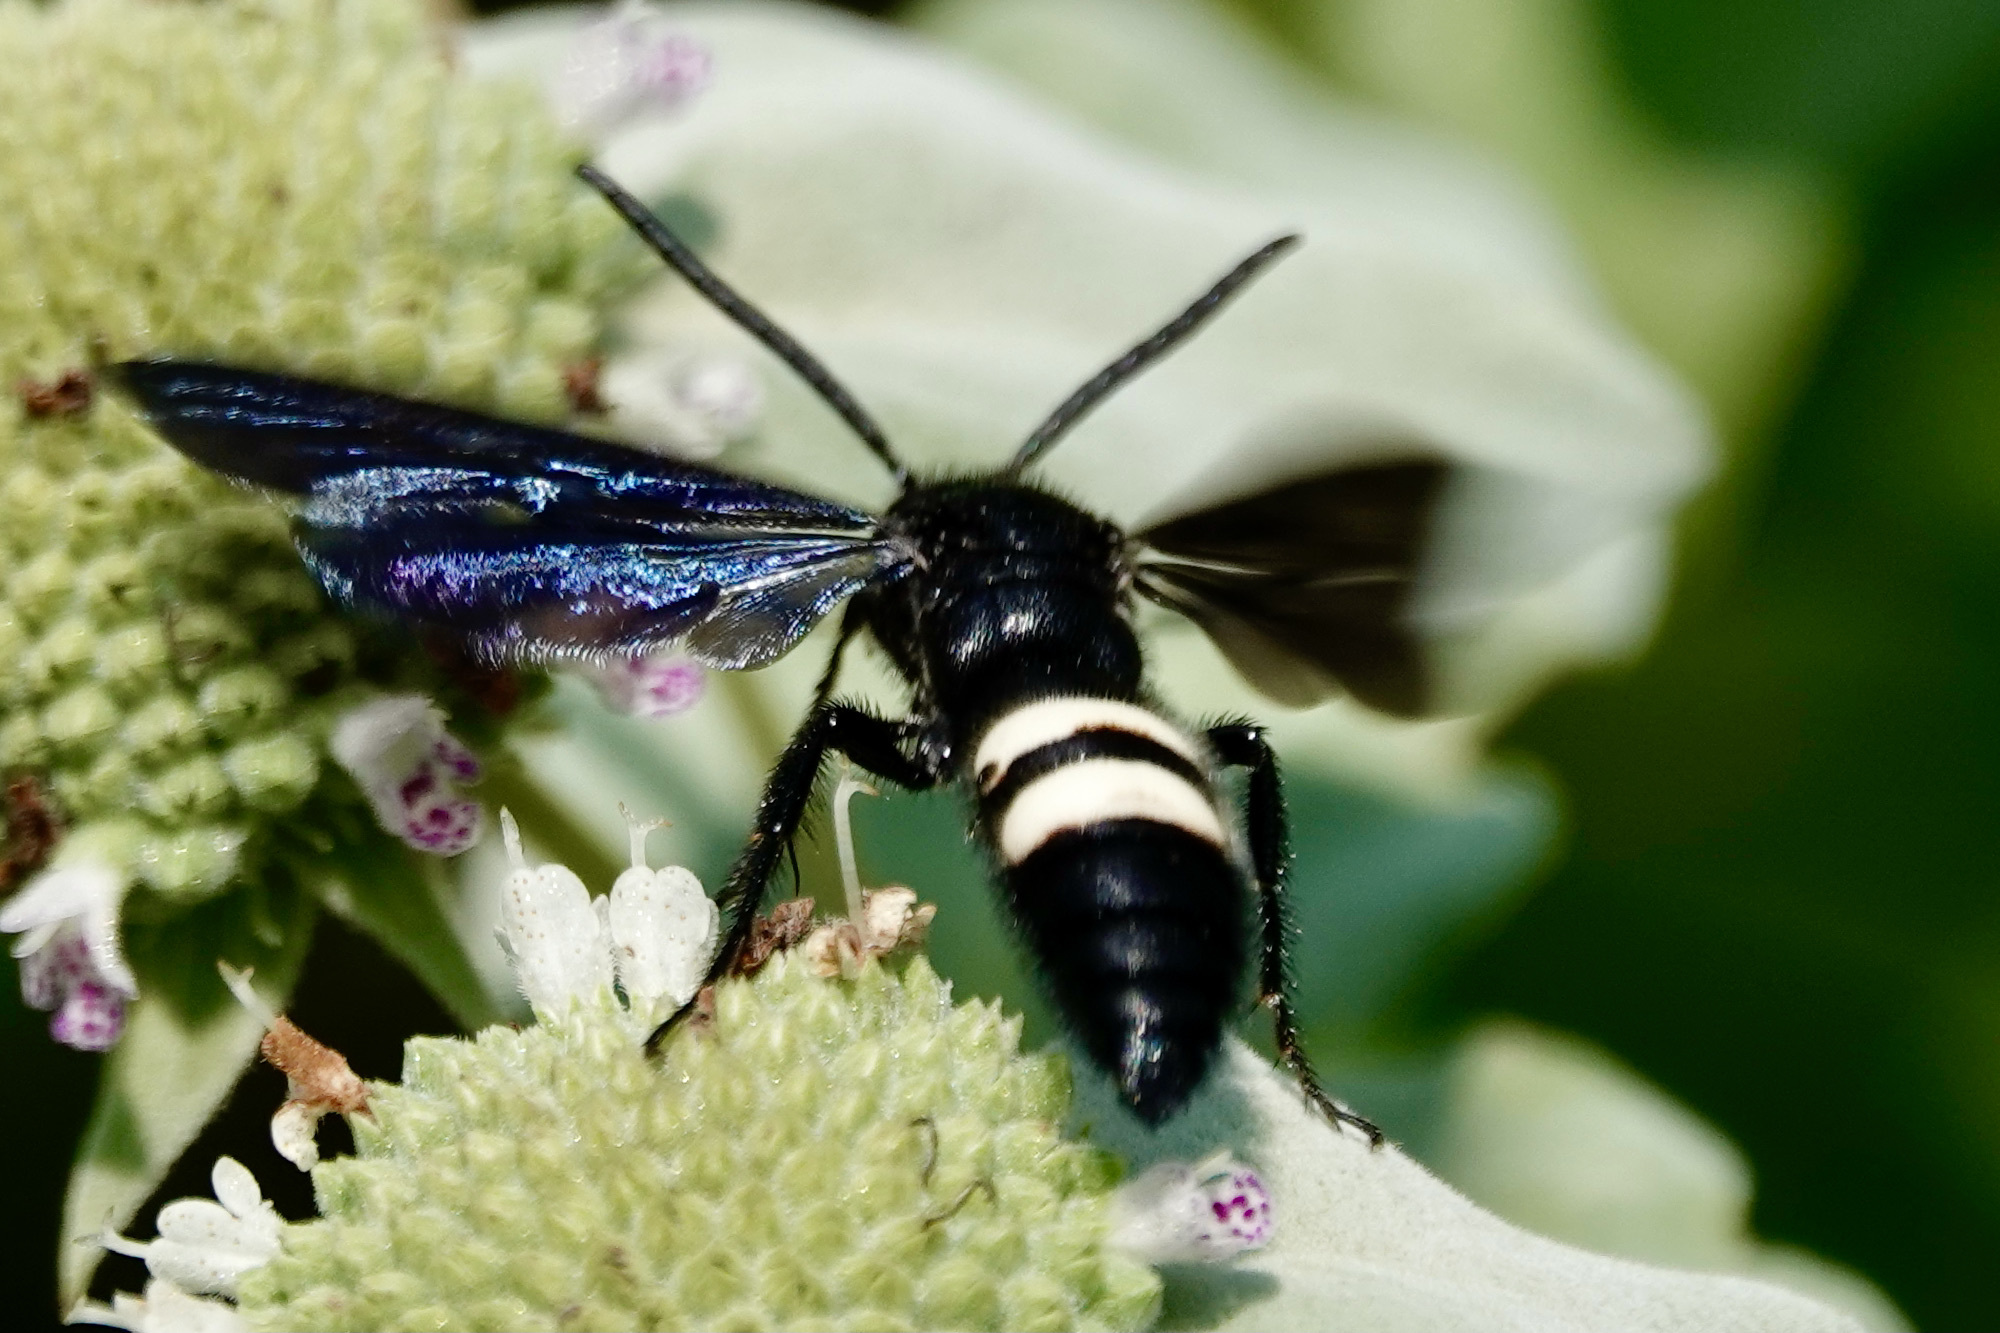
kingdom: Animalia
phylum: Arthropoda
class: Insecta
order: Hymenoptera
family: Scoliidae
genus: Scolia
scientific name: Scolia bicincta
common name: Double-banded scoliid wasp
